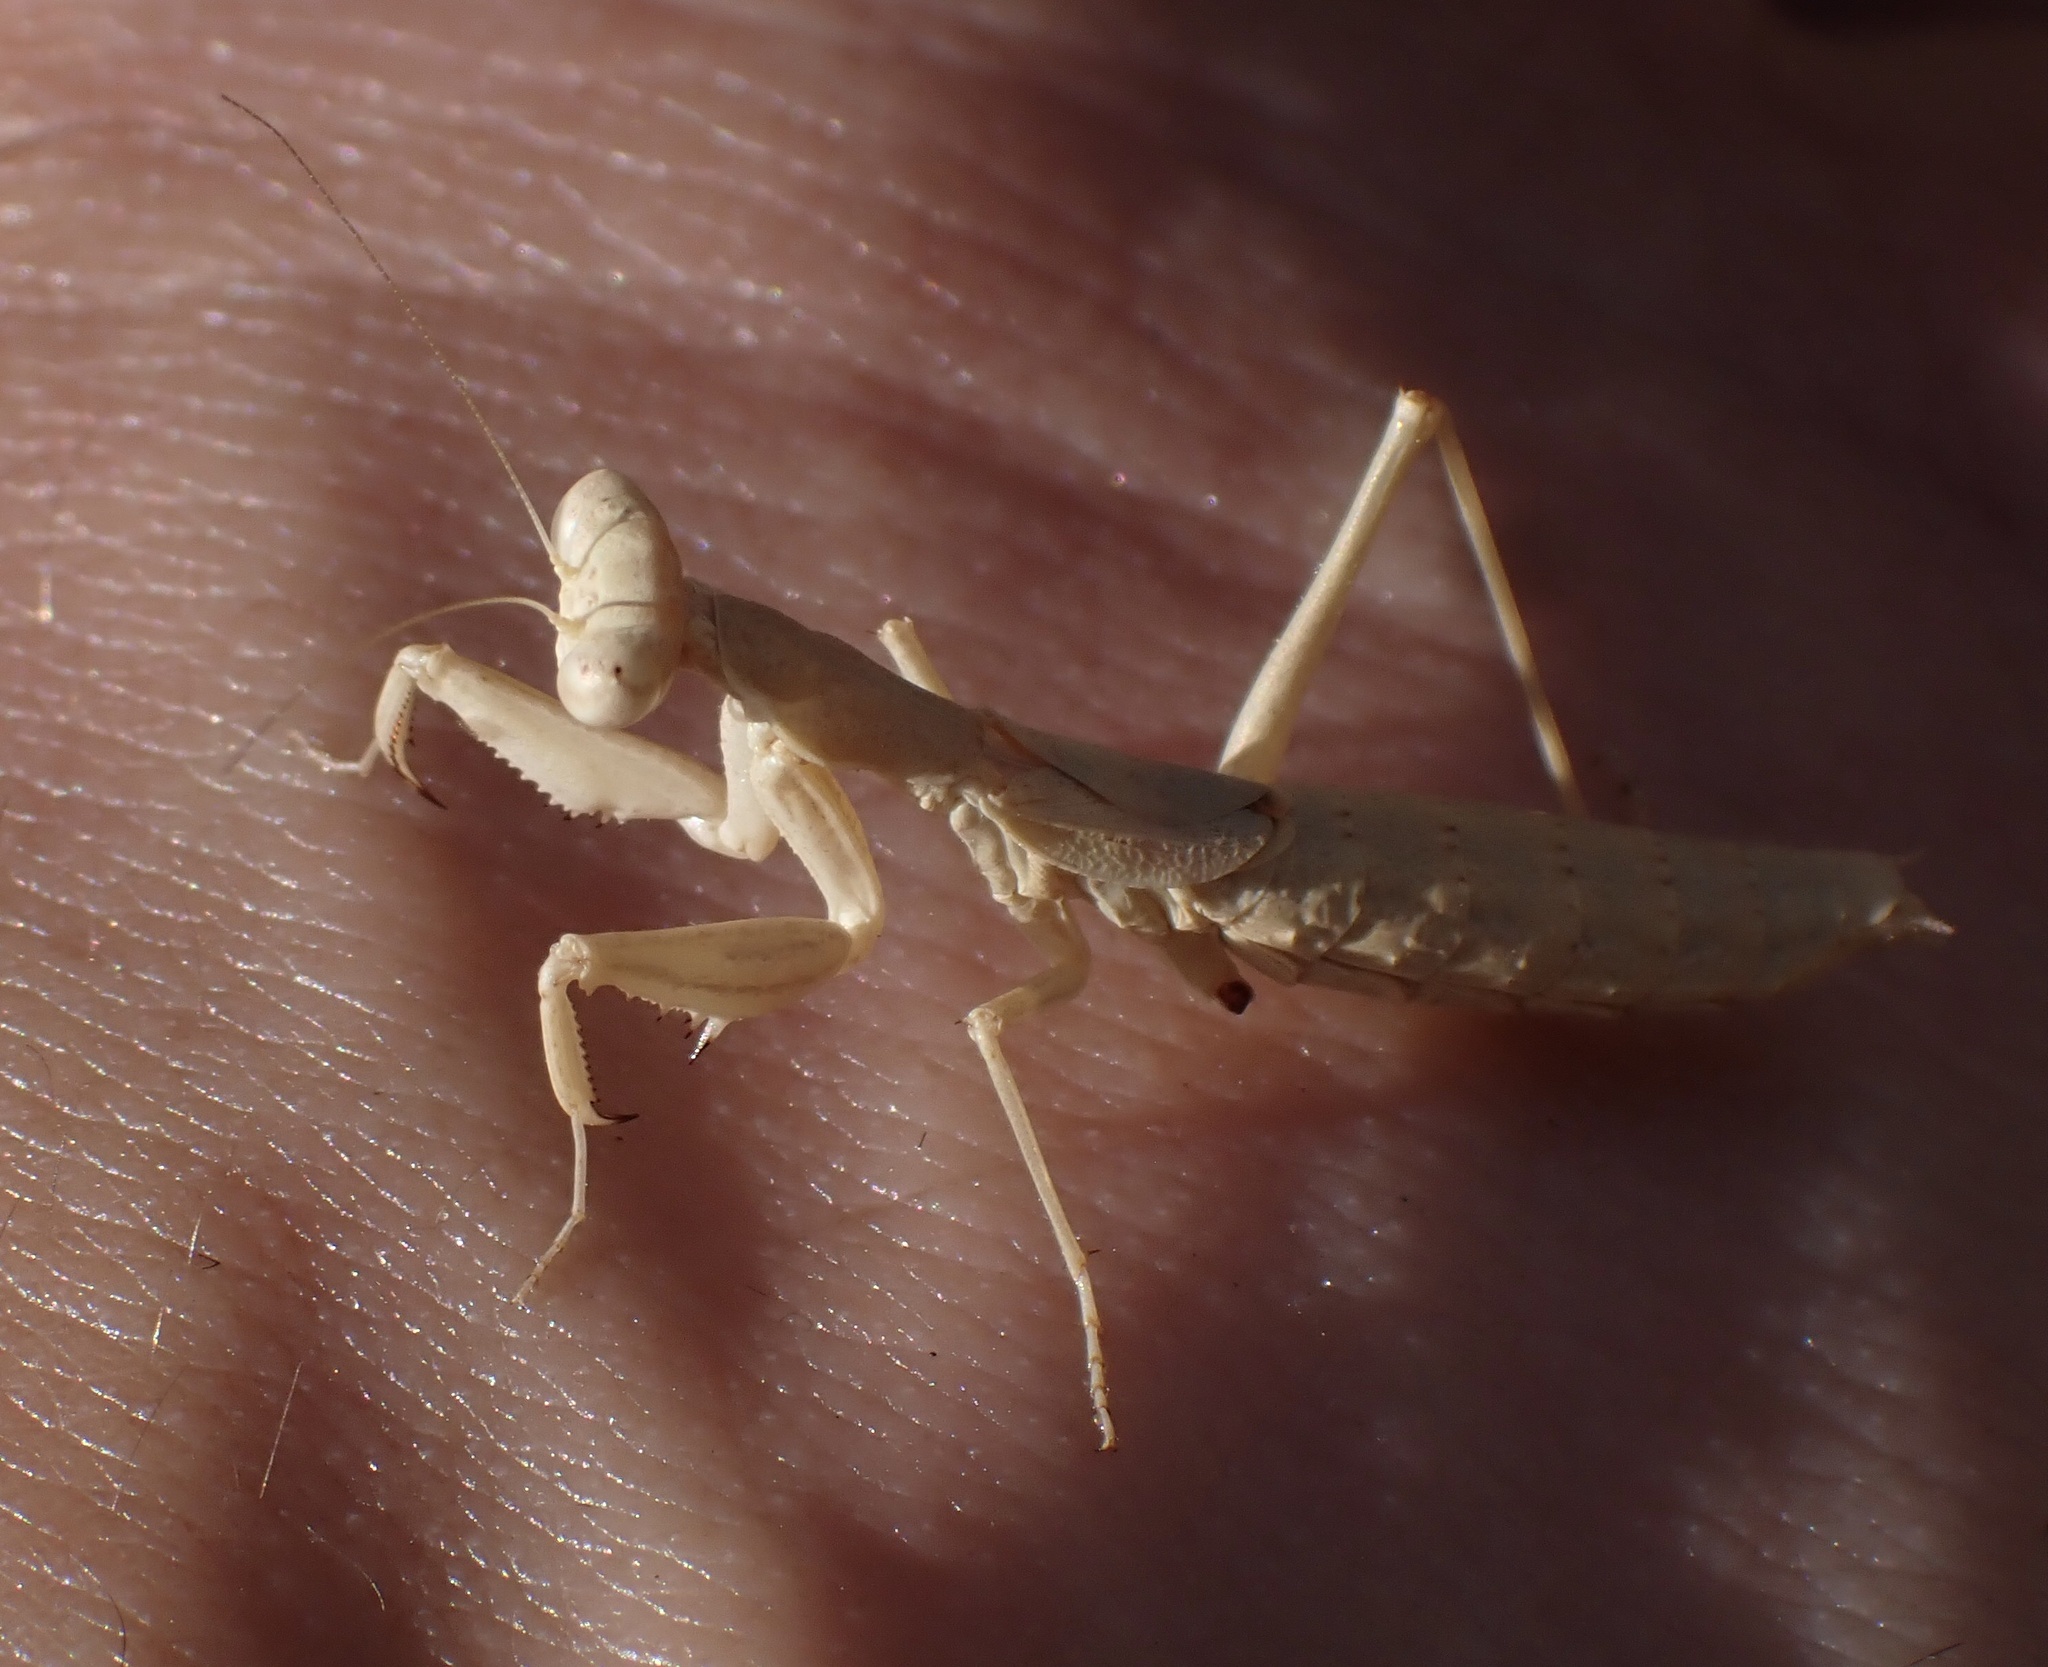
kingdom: Animalia
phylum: Arthropoda
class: Insecta
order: Mantodea
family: Amelidae
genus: Ameles
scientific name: Ameles decolor
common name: Dwarf mantis
